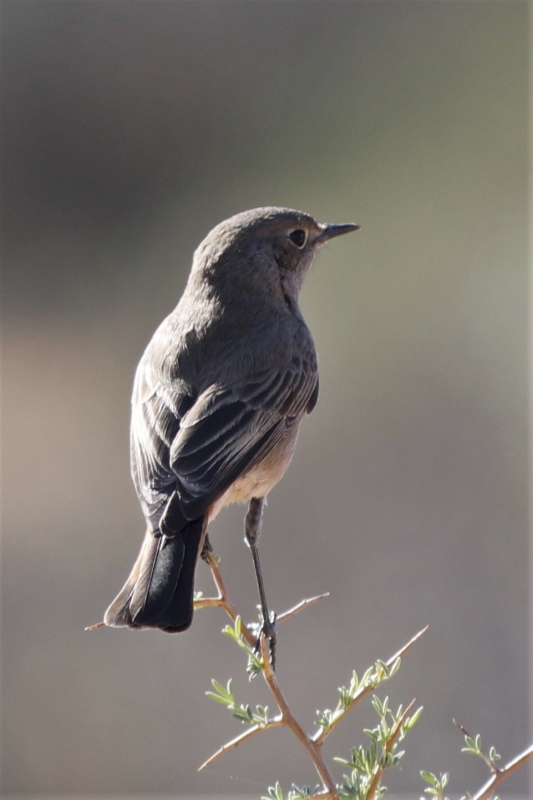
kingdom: Animalia
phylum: Chordata
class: Aves
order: Passeriformes
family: Muscicapidae
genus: Emarginata
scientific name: Emarginata schlegelii
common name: Karoo chat
